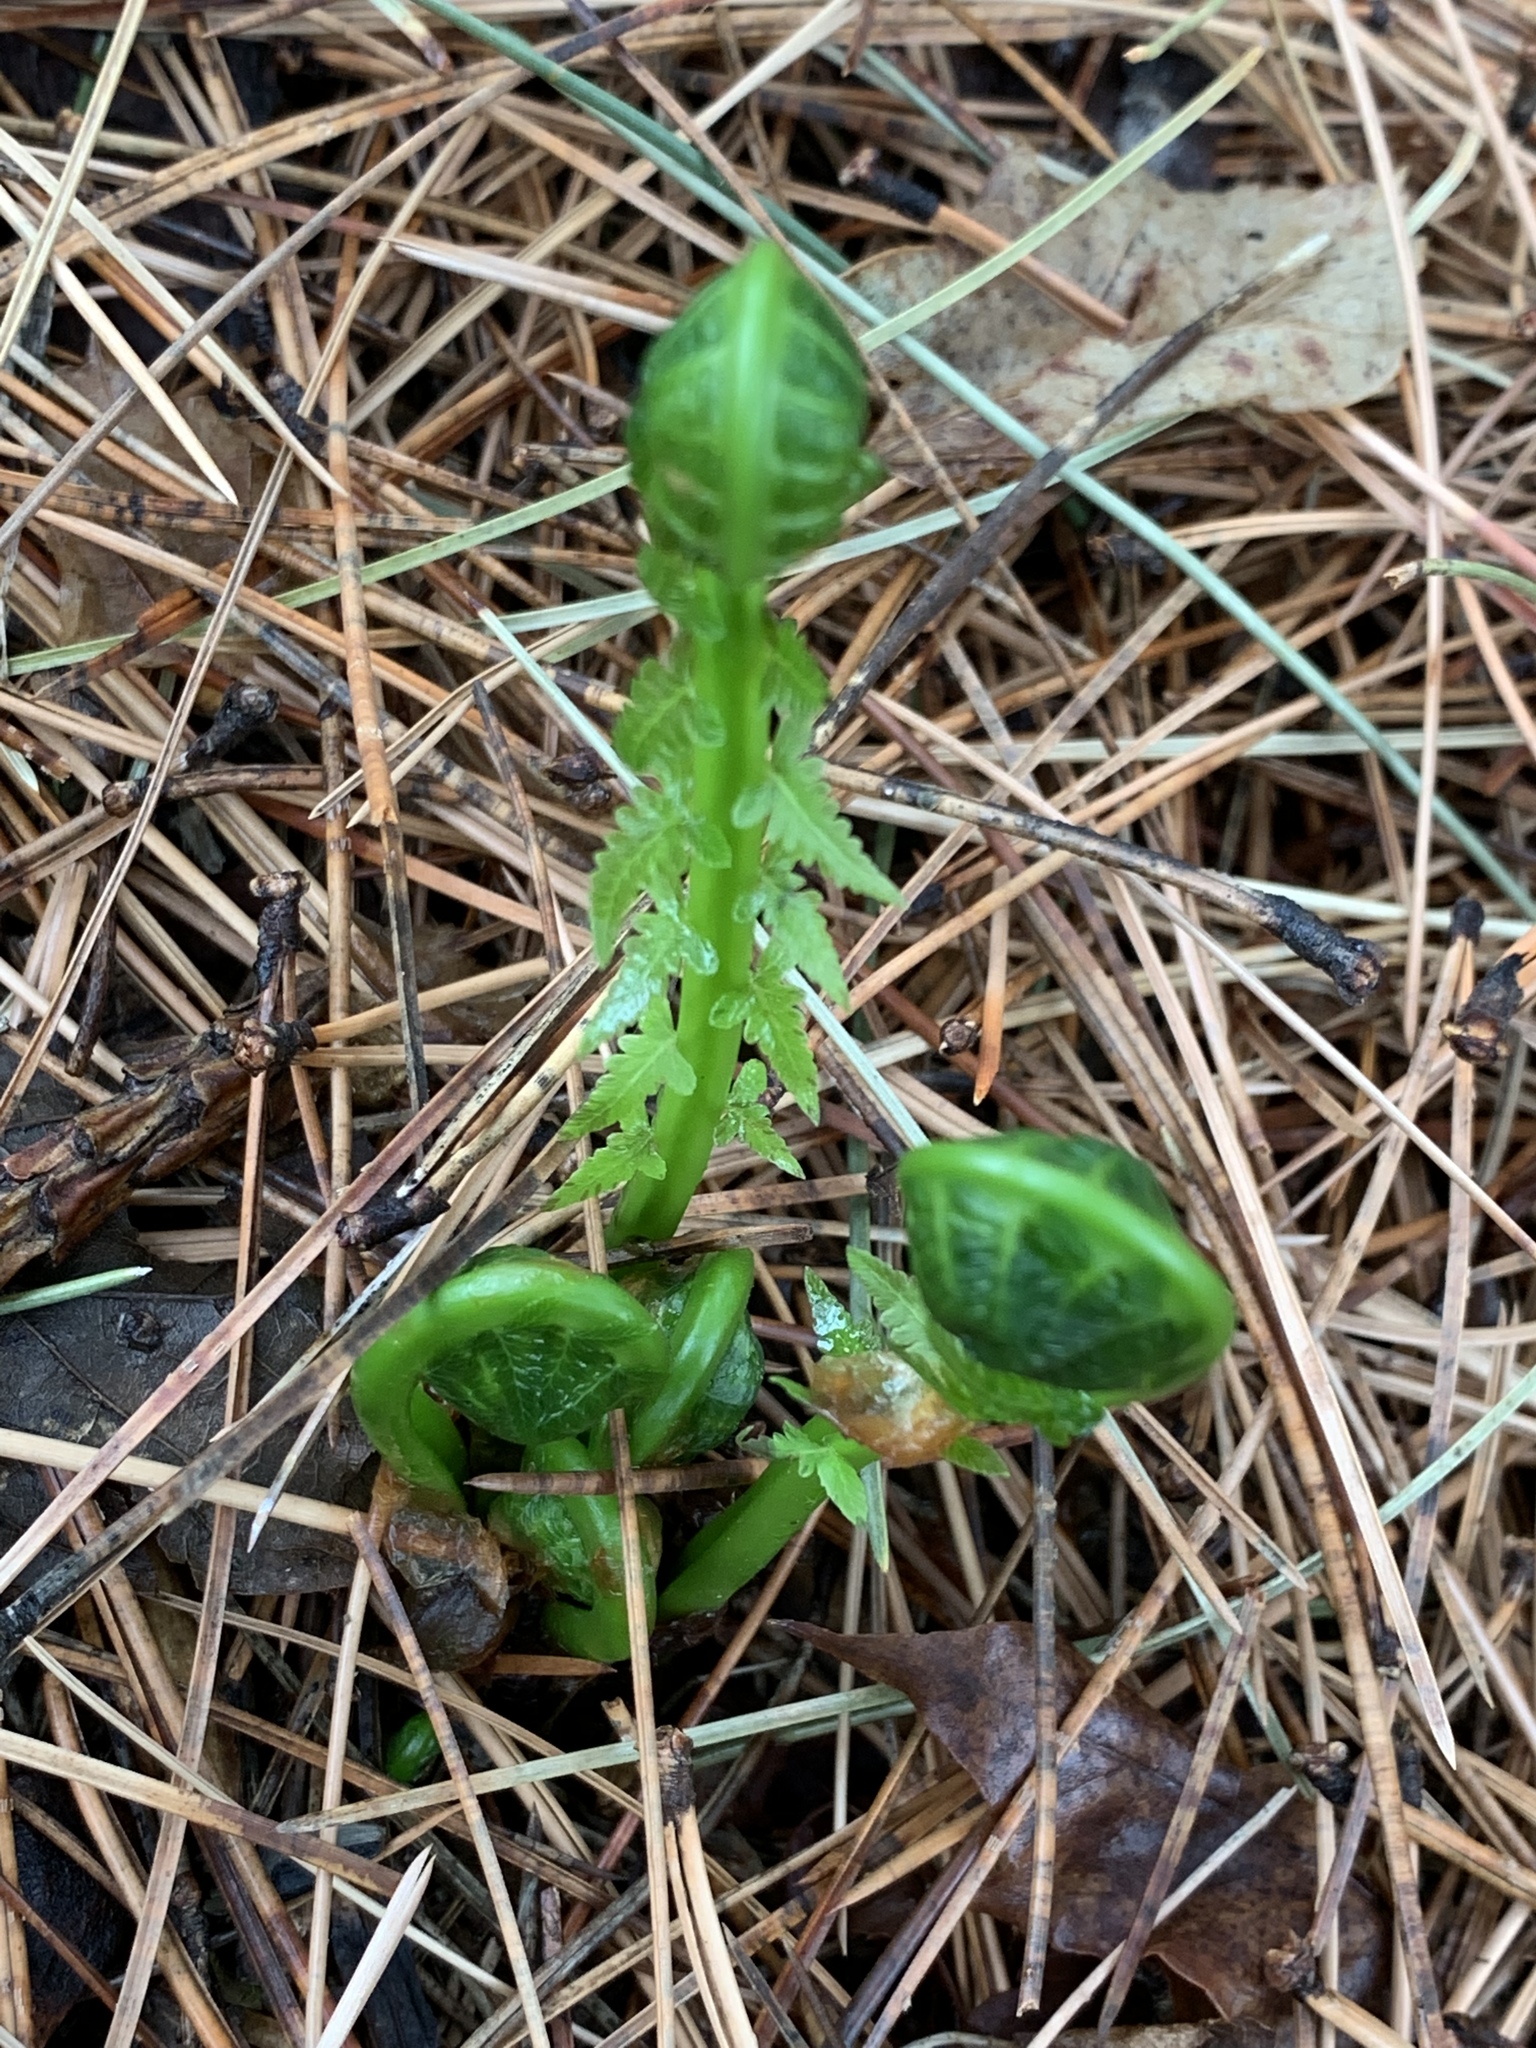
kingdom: Plantae
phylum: Tracheophyta
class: Polypodiopsida
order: Polypodiales
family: Onocleaceae
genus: Matteuccia
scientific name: Matteuccia struthiopteris
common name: Ostrich fern
